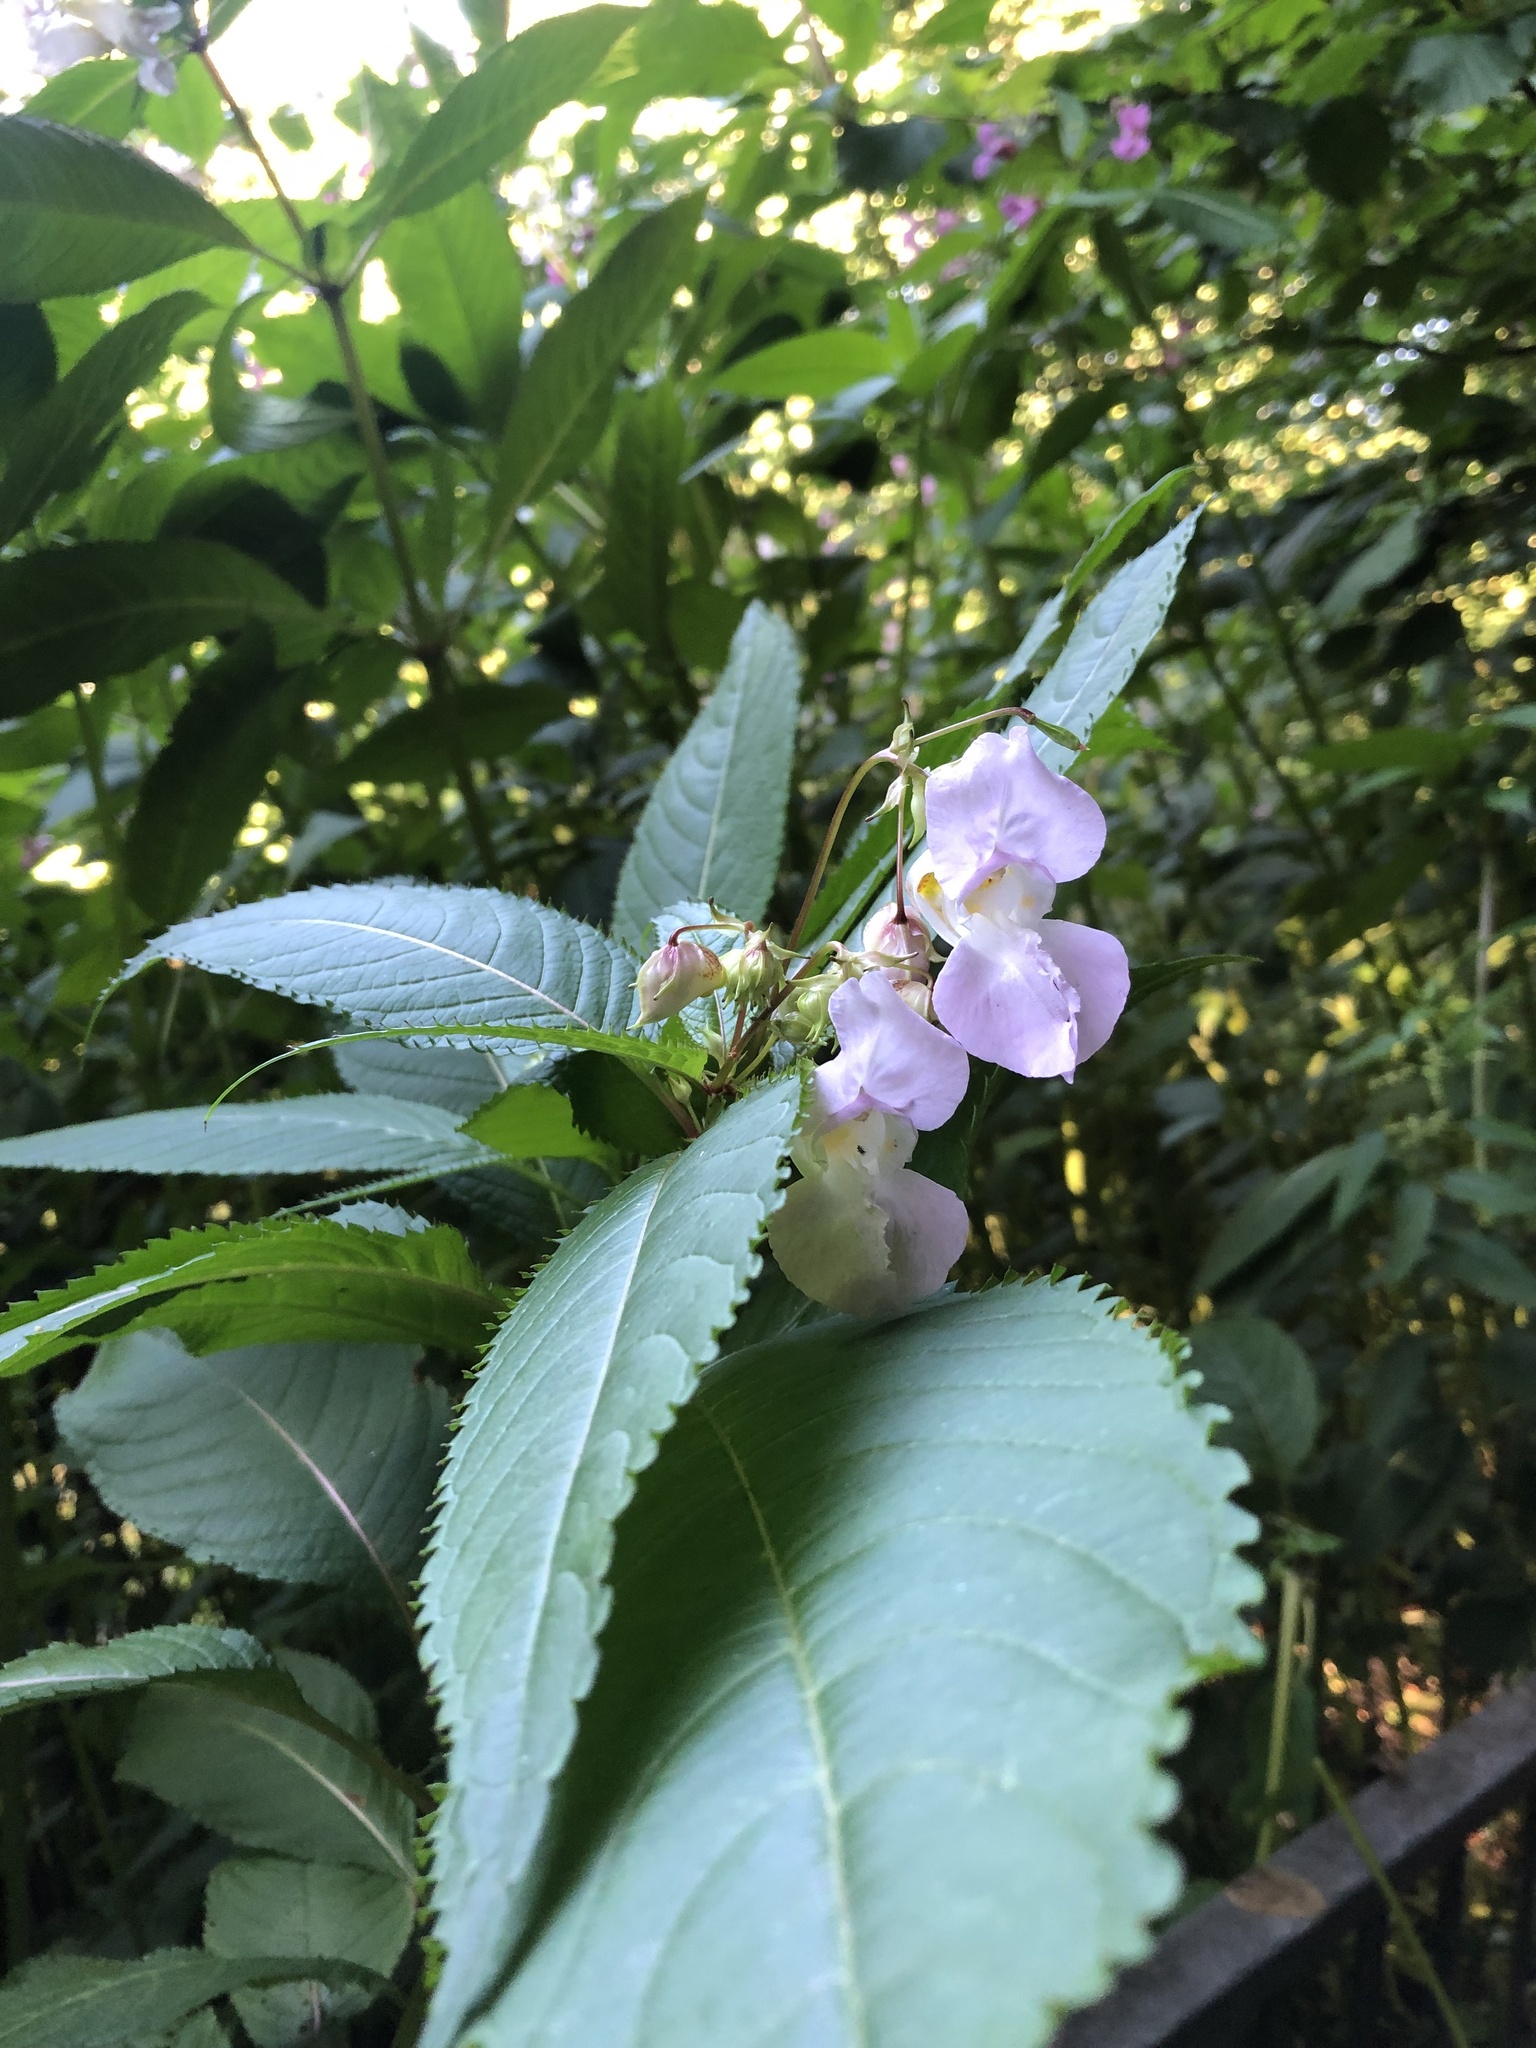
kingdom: Plantae
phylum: Tracheophyta
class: Magnoliopsida
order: Ericales
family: Balsaminaceae
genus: Impatiens
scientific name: Impatiens glandulifera
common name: Himalayan balsam
